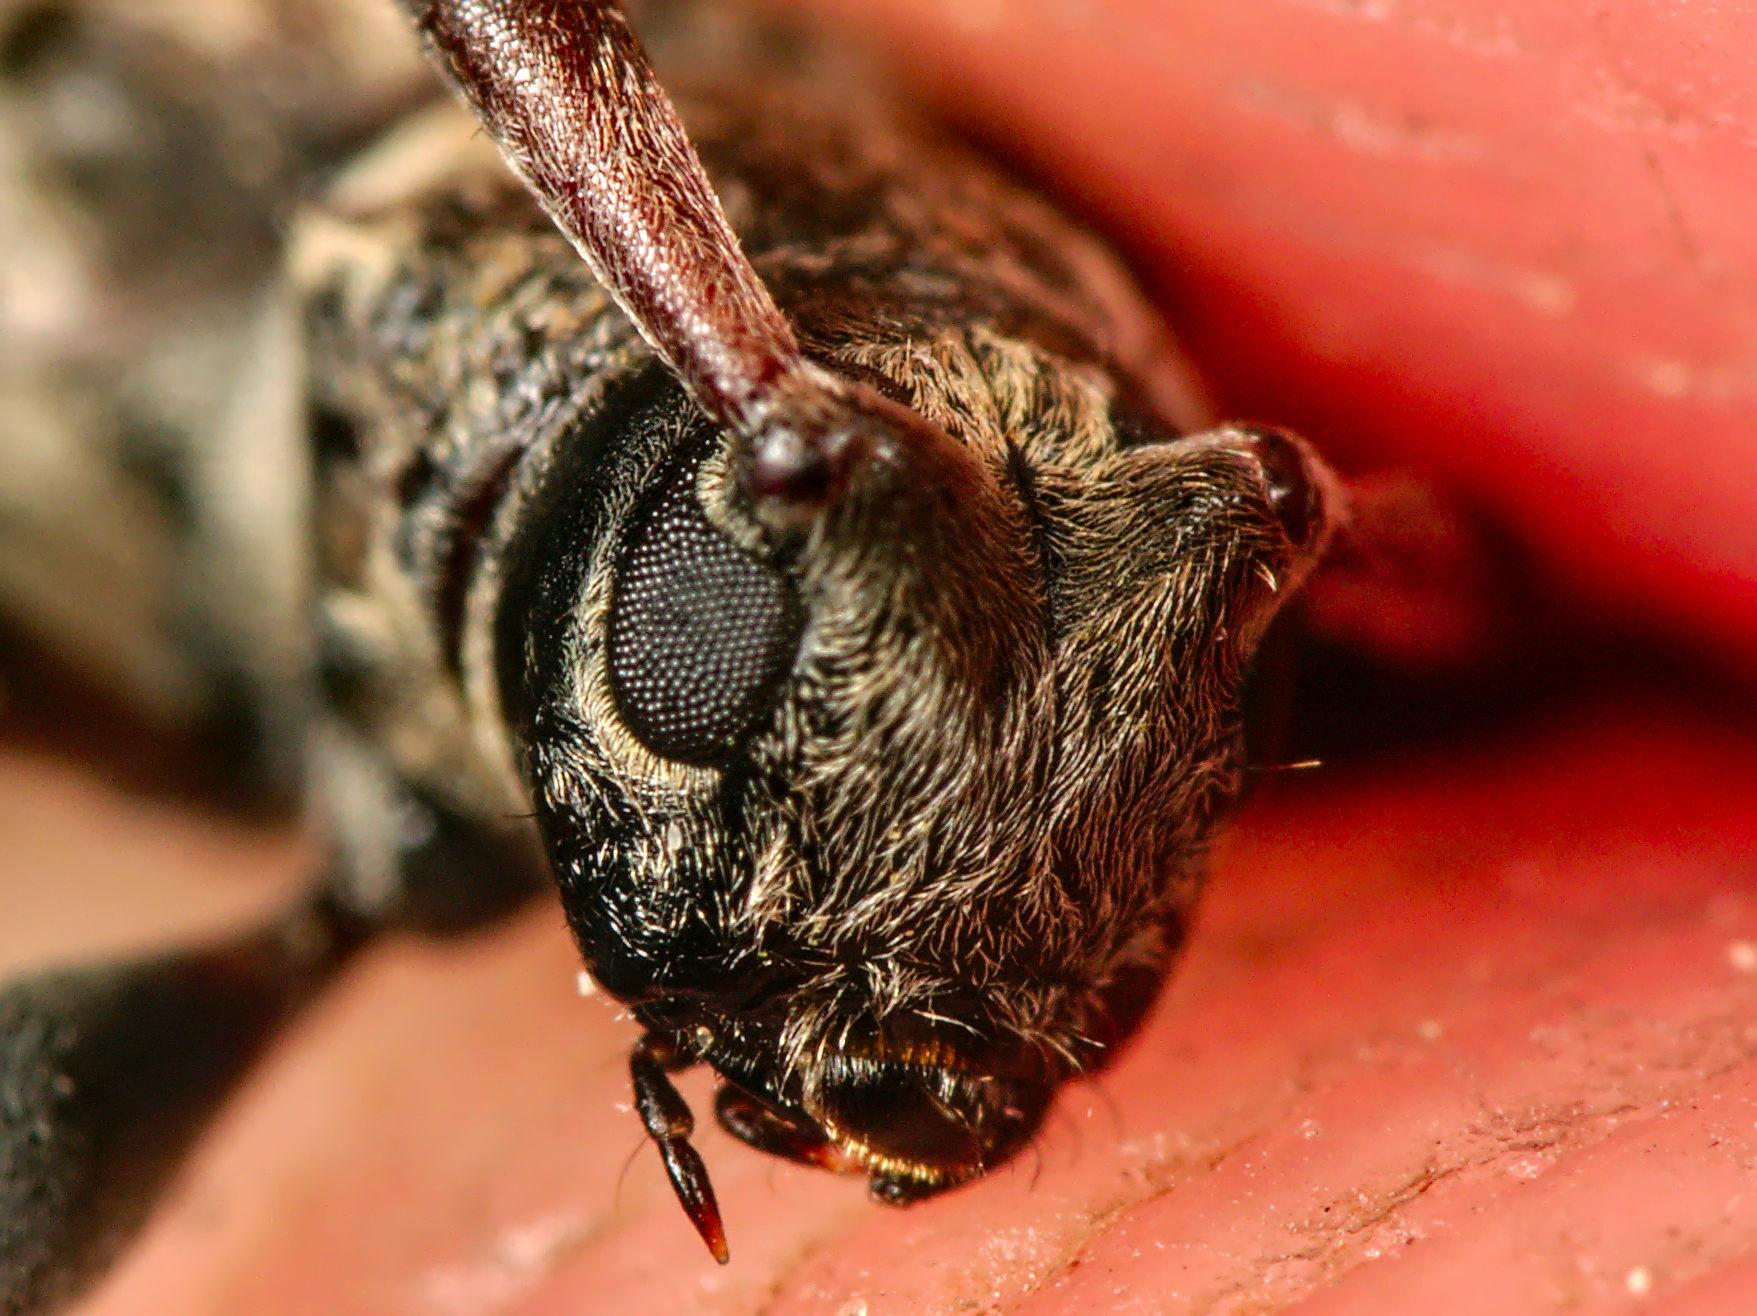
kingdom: Animalia
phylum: Arthropoda
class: Insecta
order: Coleoptera
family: Cerambycidae
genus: Leiopus
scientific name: Leiopus femoratus
